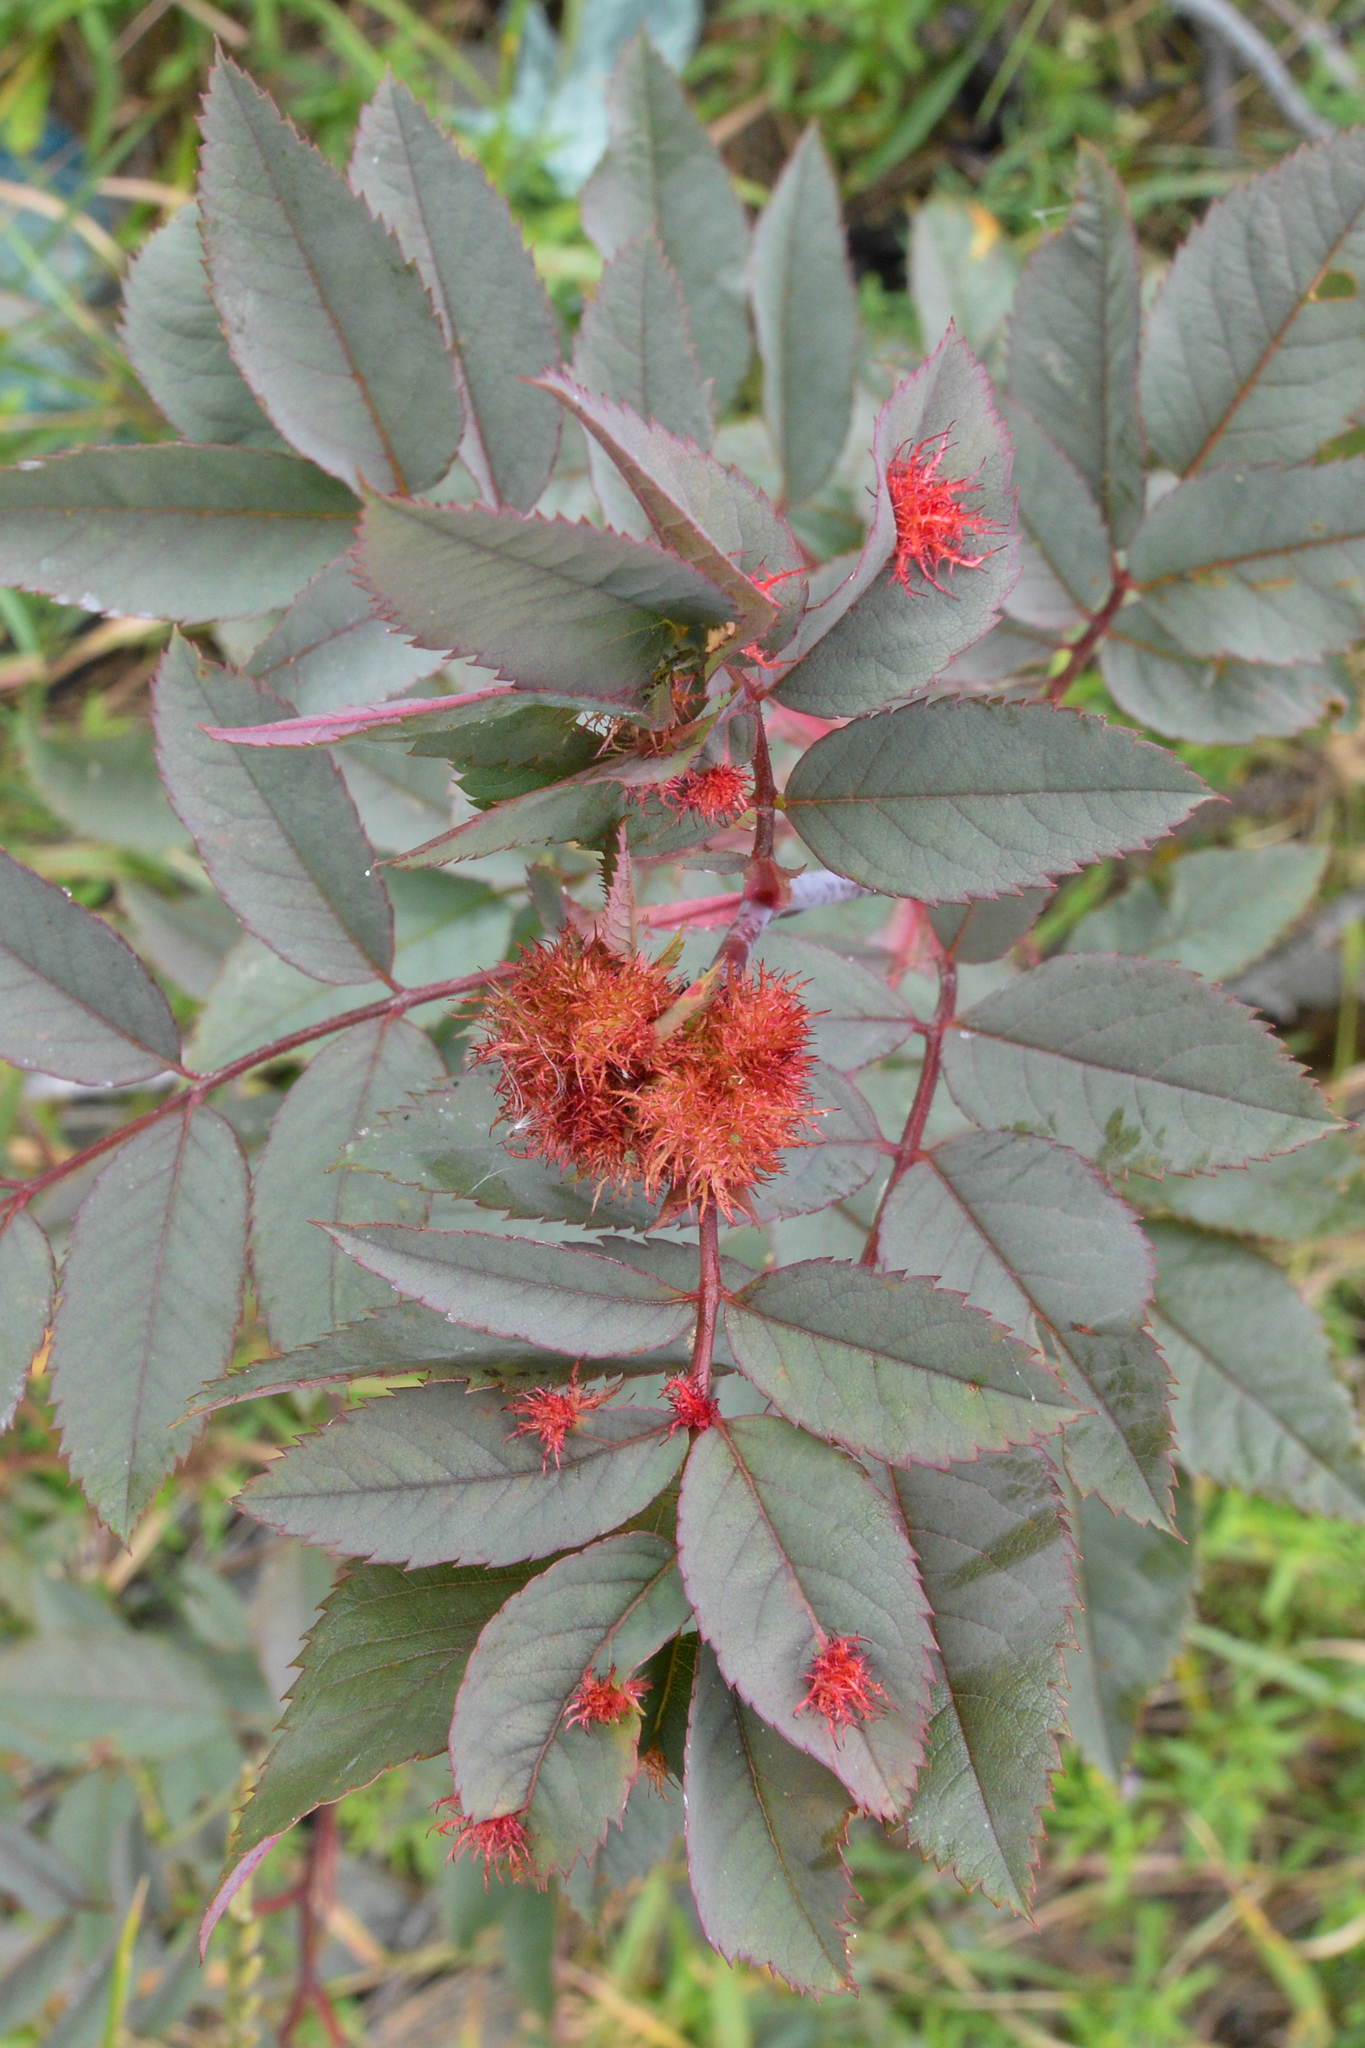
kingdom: Plantae
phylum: Tracheophyta
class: Magnoliopsida
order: Rosales
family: Rosaceae
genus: Rosa
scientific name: Rosa glauca
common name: Redleaf rose
